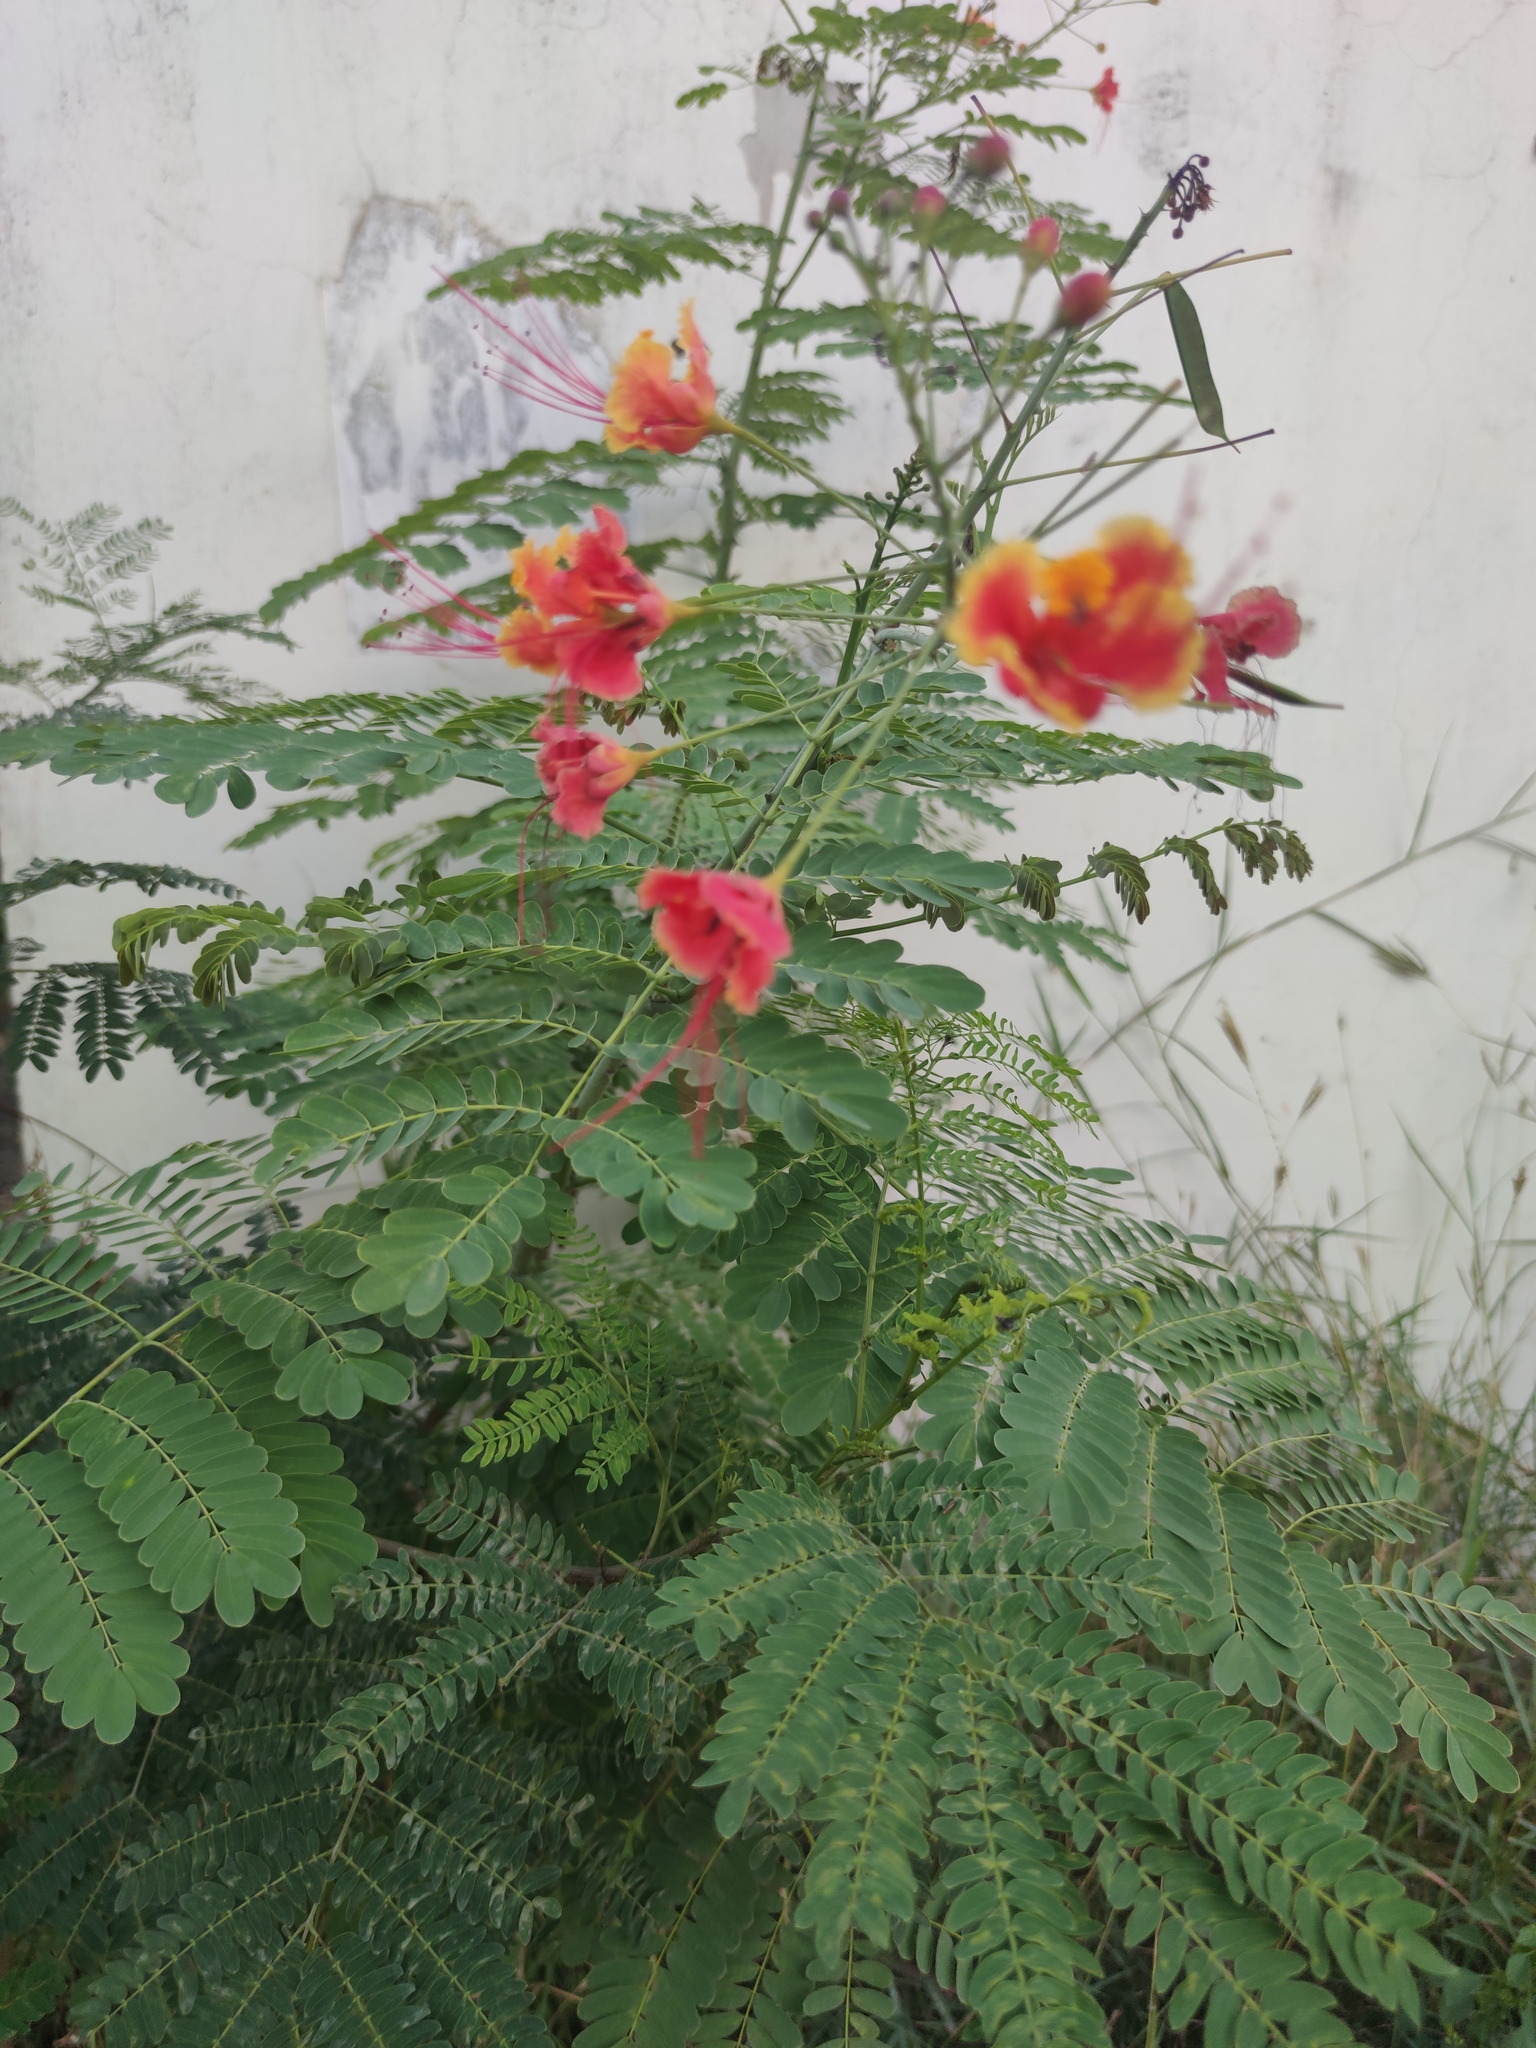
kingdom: Plantae
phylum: Tracheophyta
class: Magnoliopsida
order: Fabales
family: Fabaceae
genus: Caesalpinia
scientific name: Caesalpinia pulcherrima
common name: Pride-of-barbados
